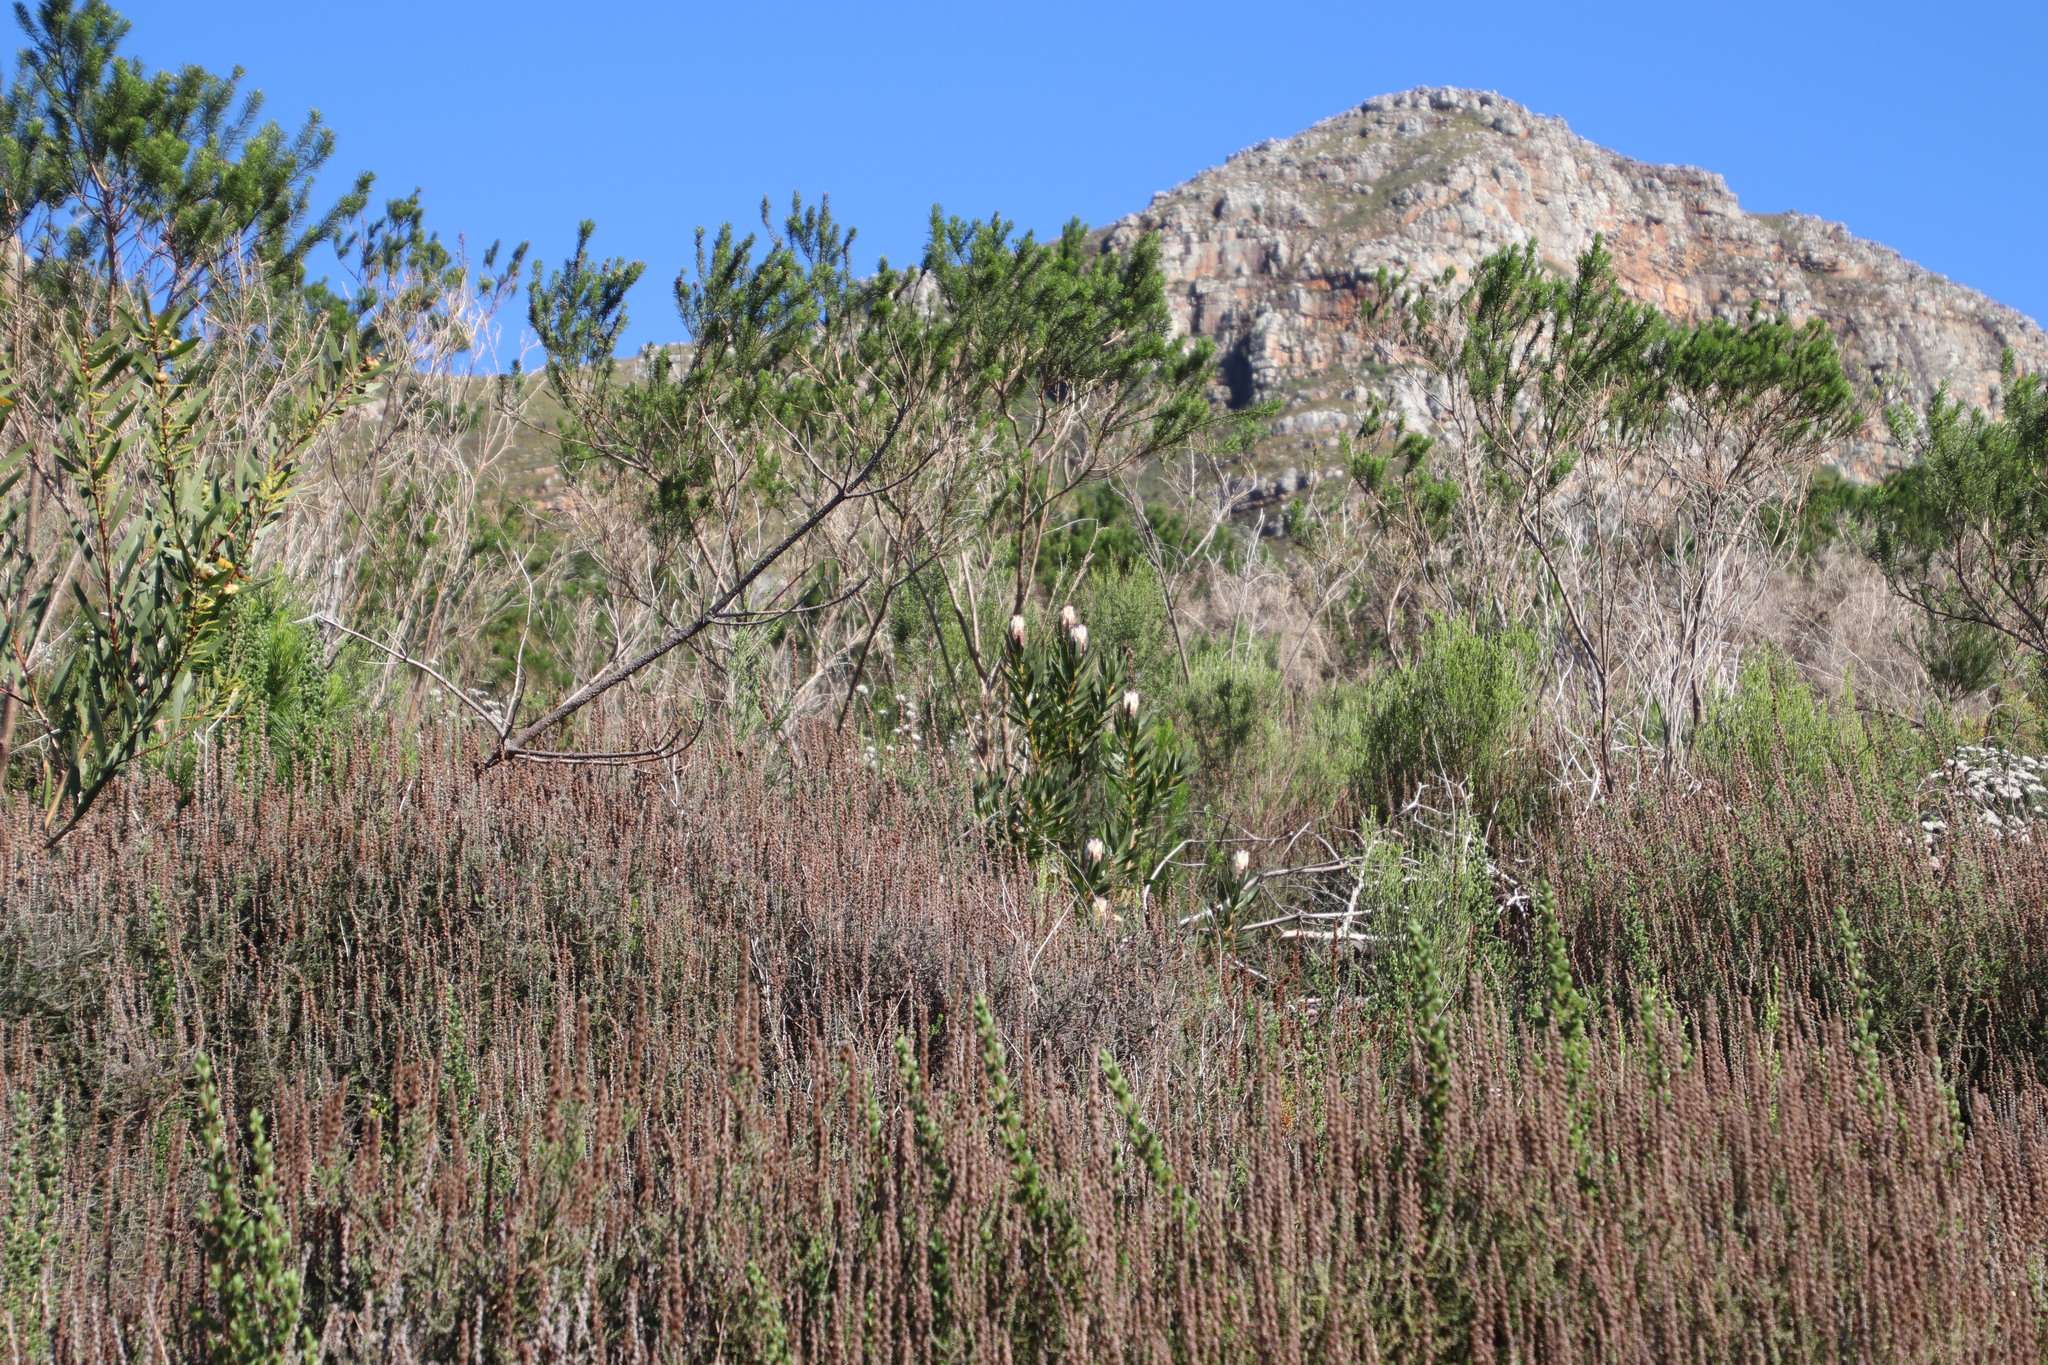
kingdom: Plantae
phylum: Tracheophyta
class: Magnoliopsida
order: Proteales
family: Proteaceae
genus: Protea
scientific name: Protea lepidocarpodendron
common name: Black-bearded protea
